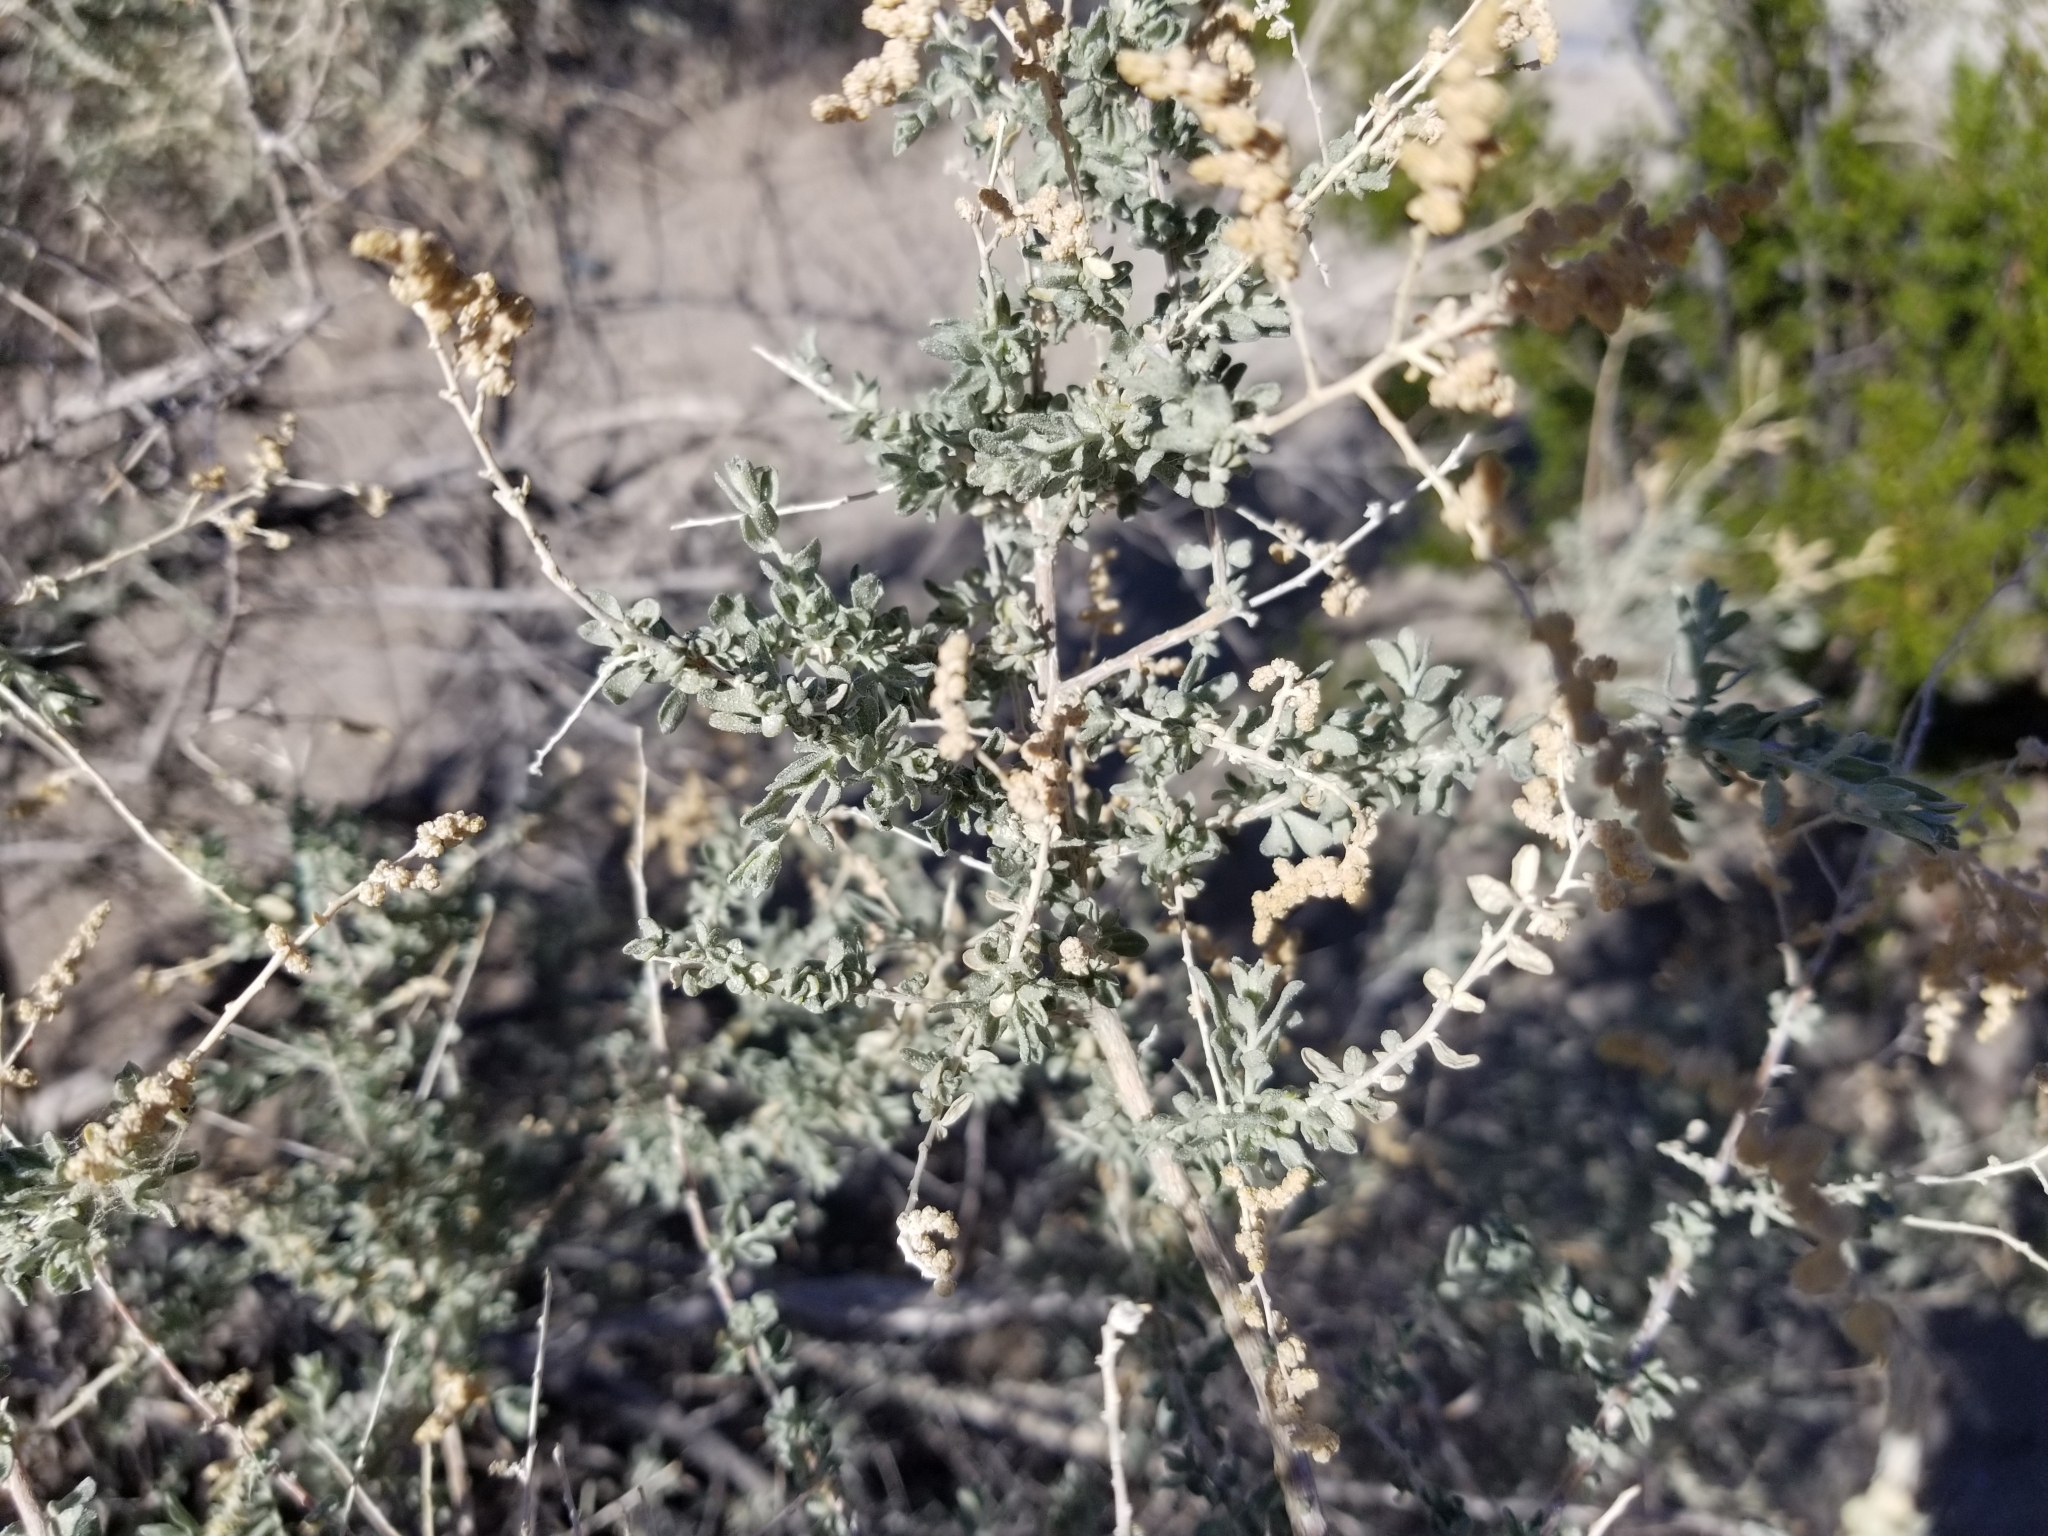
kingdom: Plantae
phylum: Tracheophyta
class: Magnoliopsida
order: Caryophyllales
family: Amaranthaceae
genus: Atriplex
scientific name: Atriplex polycarpa
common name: Desert saltbush
